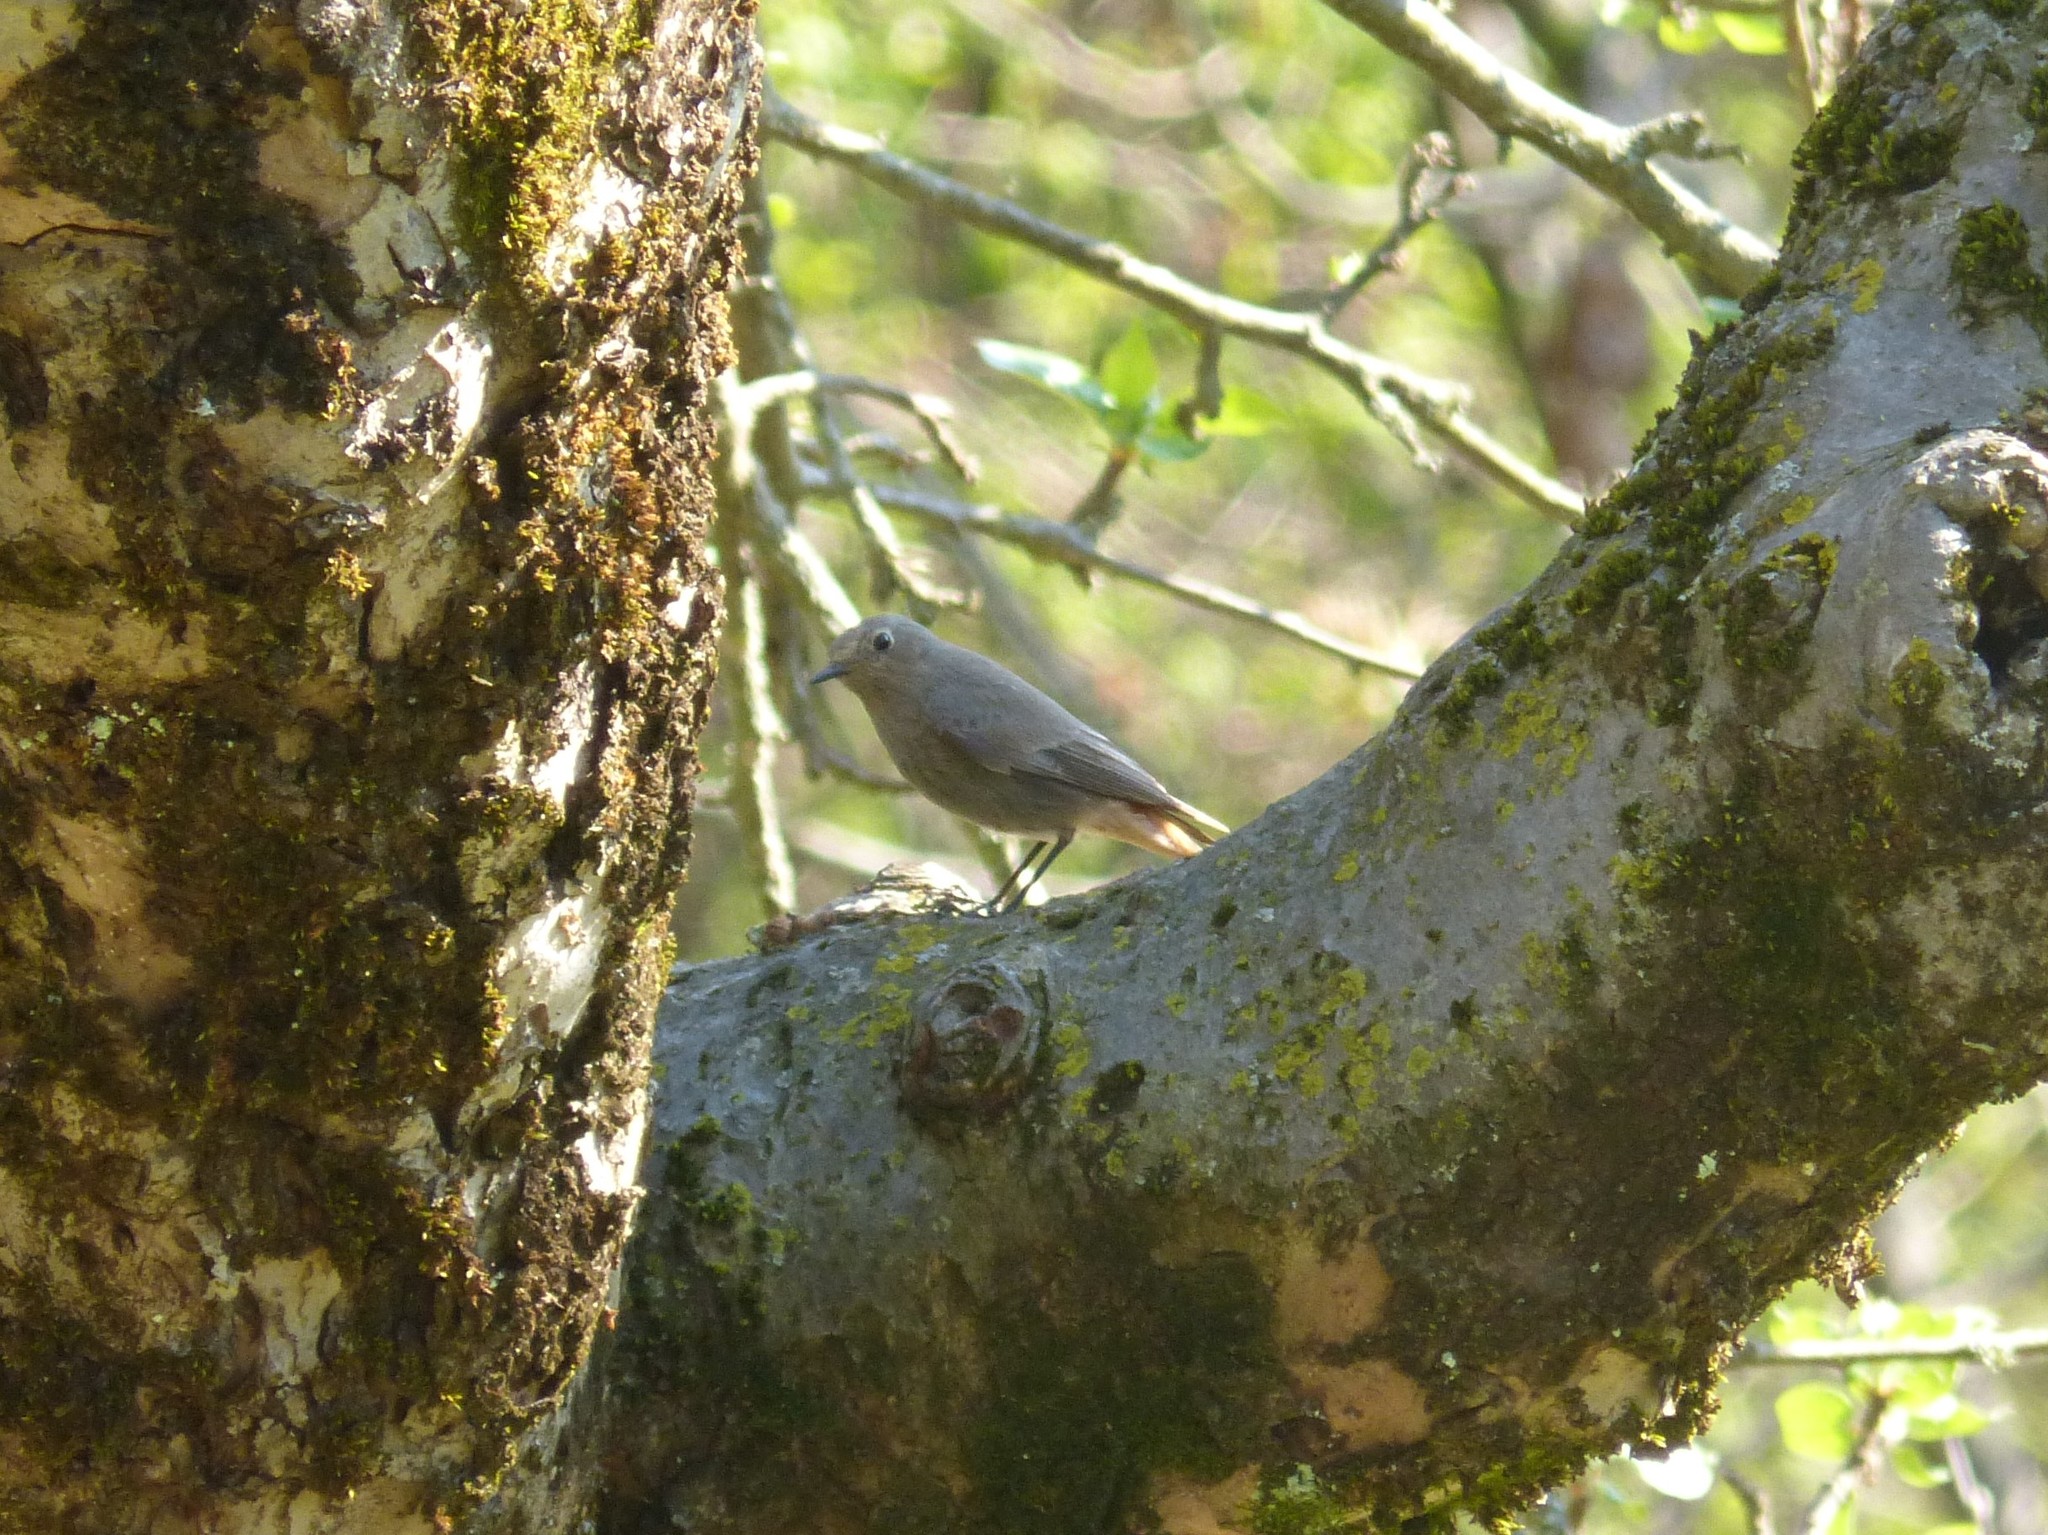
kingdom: Animalia
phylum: Chordata
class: Aves
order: Passeriformes
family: Muscicapidae
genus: Phoenicurus
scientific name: Phoenicurus ochruros
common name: Black redstart
